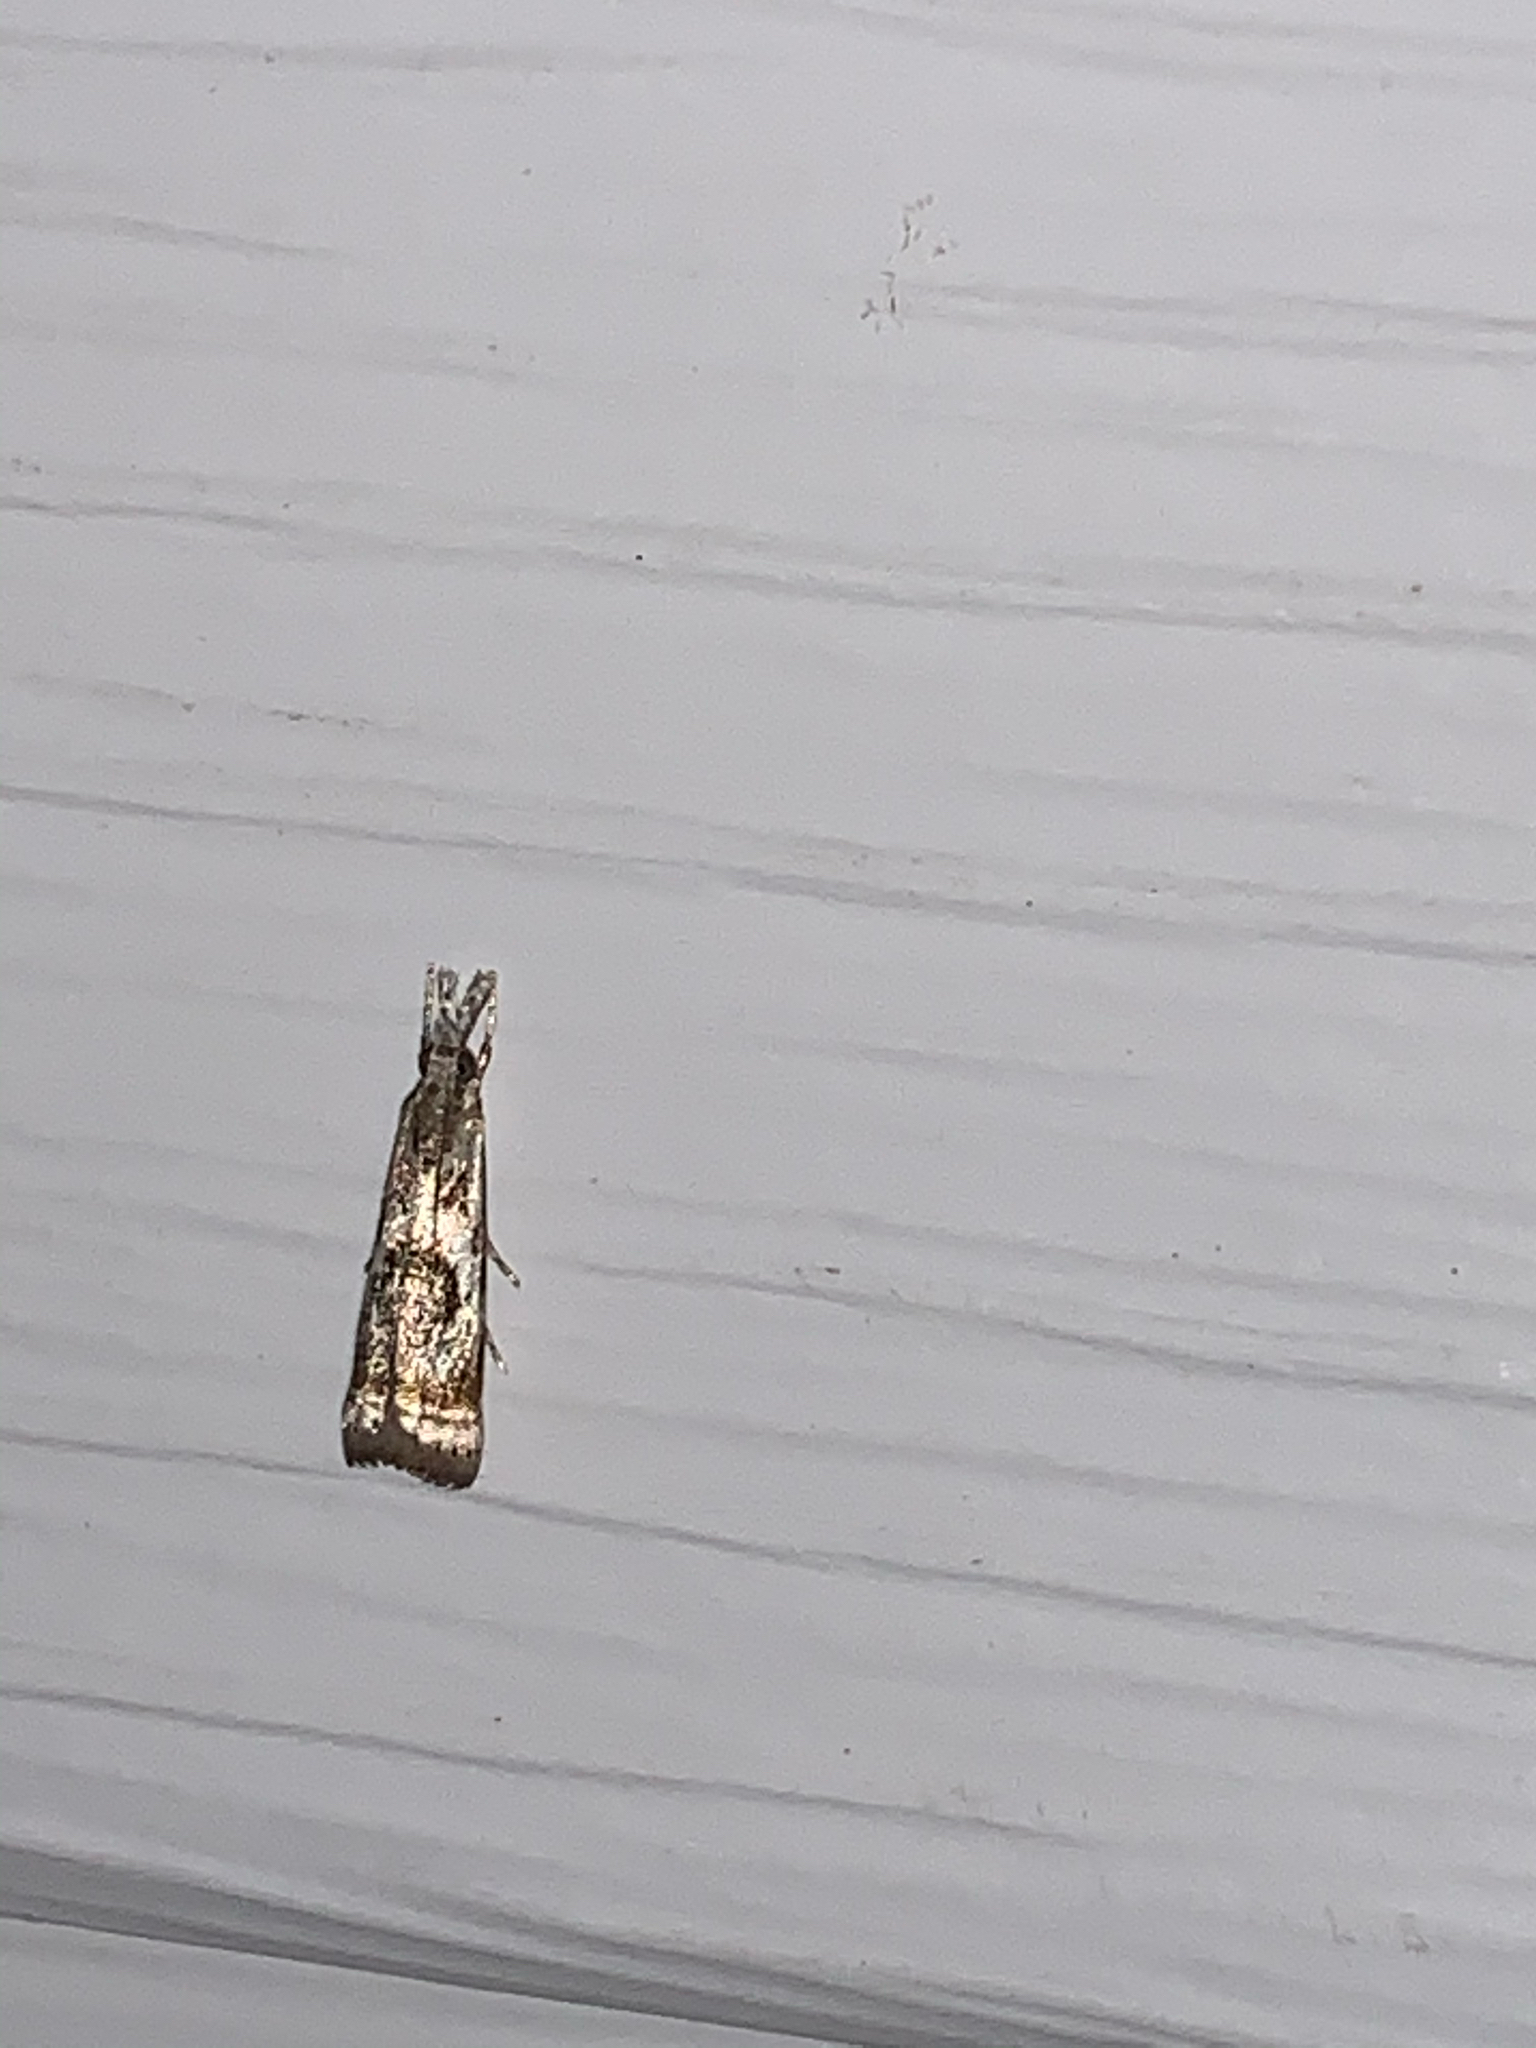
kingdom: Animalia
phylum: Arthropoda
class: Insecta
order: Lepidoptera
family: Crambidae
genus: Microcrambus
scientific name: Microcrambus elegans
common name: Elegant grass-veneer
